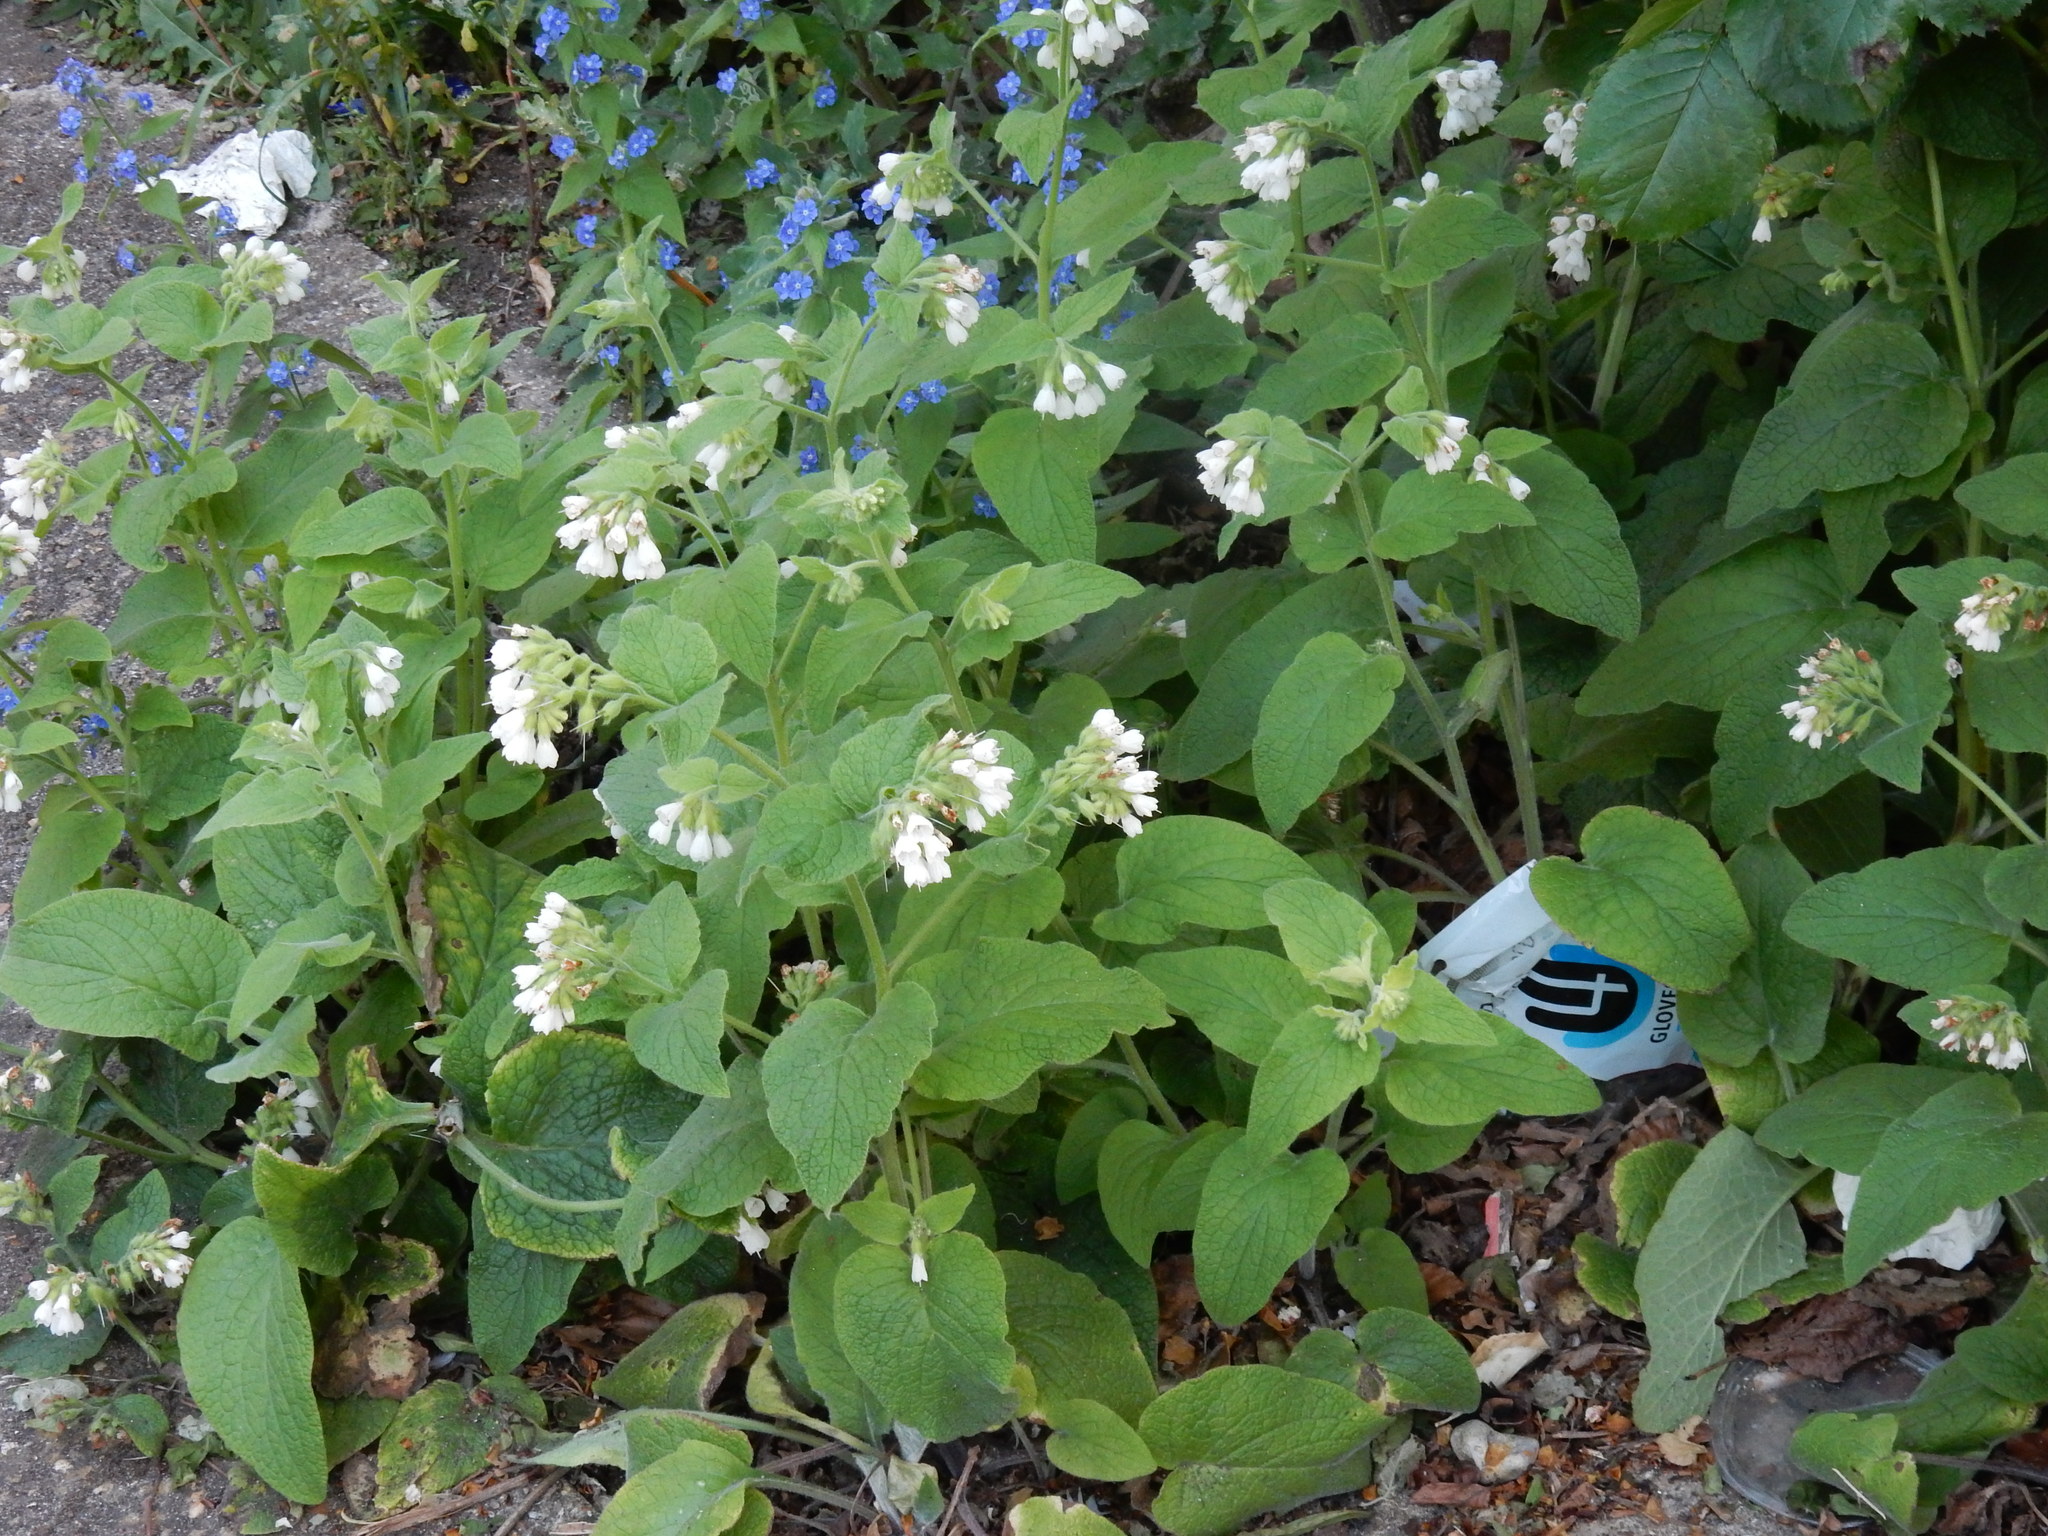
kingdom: Plantae
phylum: Tracheophyta
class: Magnoliopsida
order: Boraginales
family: Boraginaceae
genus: Symphytum
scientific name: Symphytum orientale
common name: White comfrey
